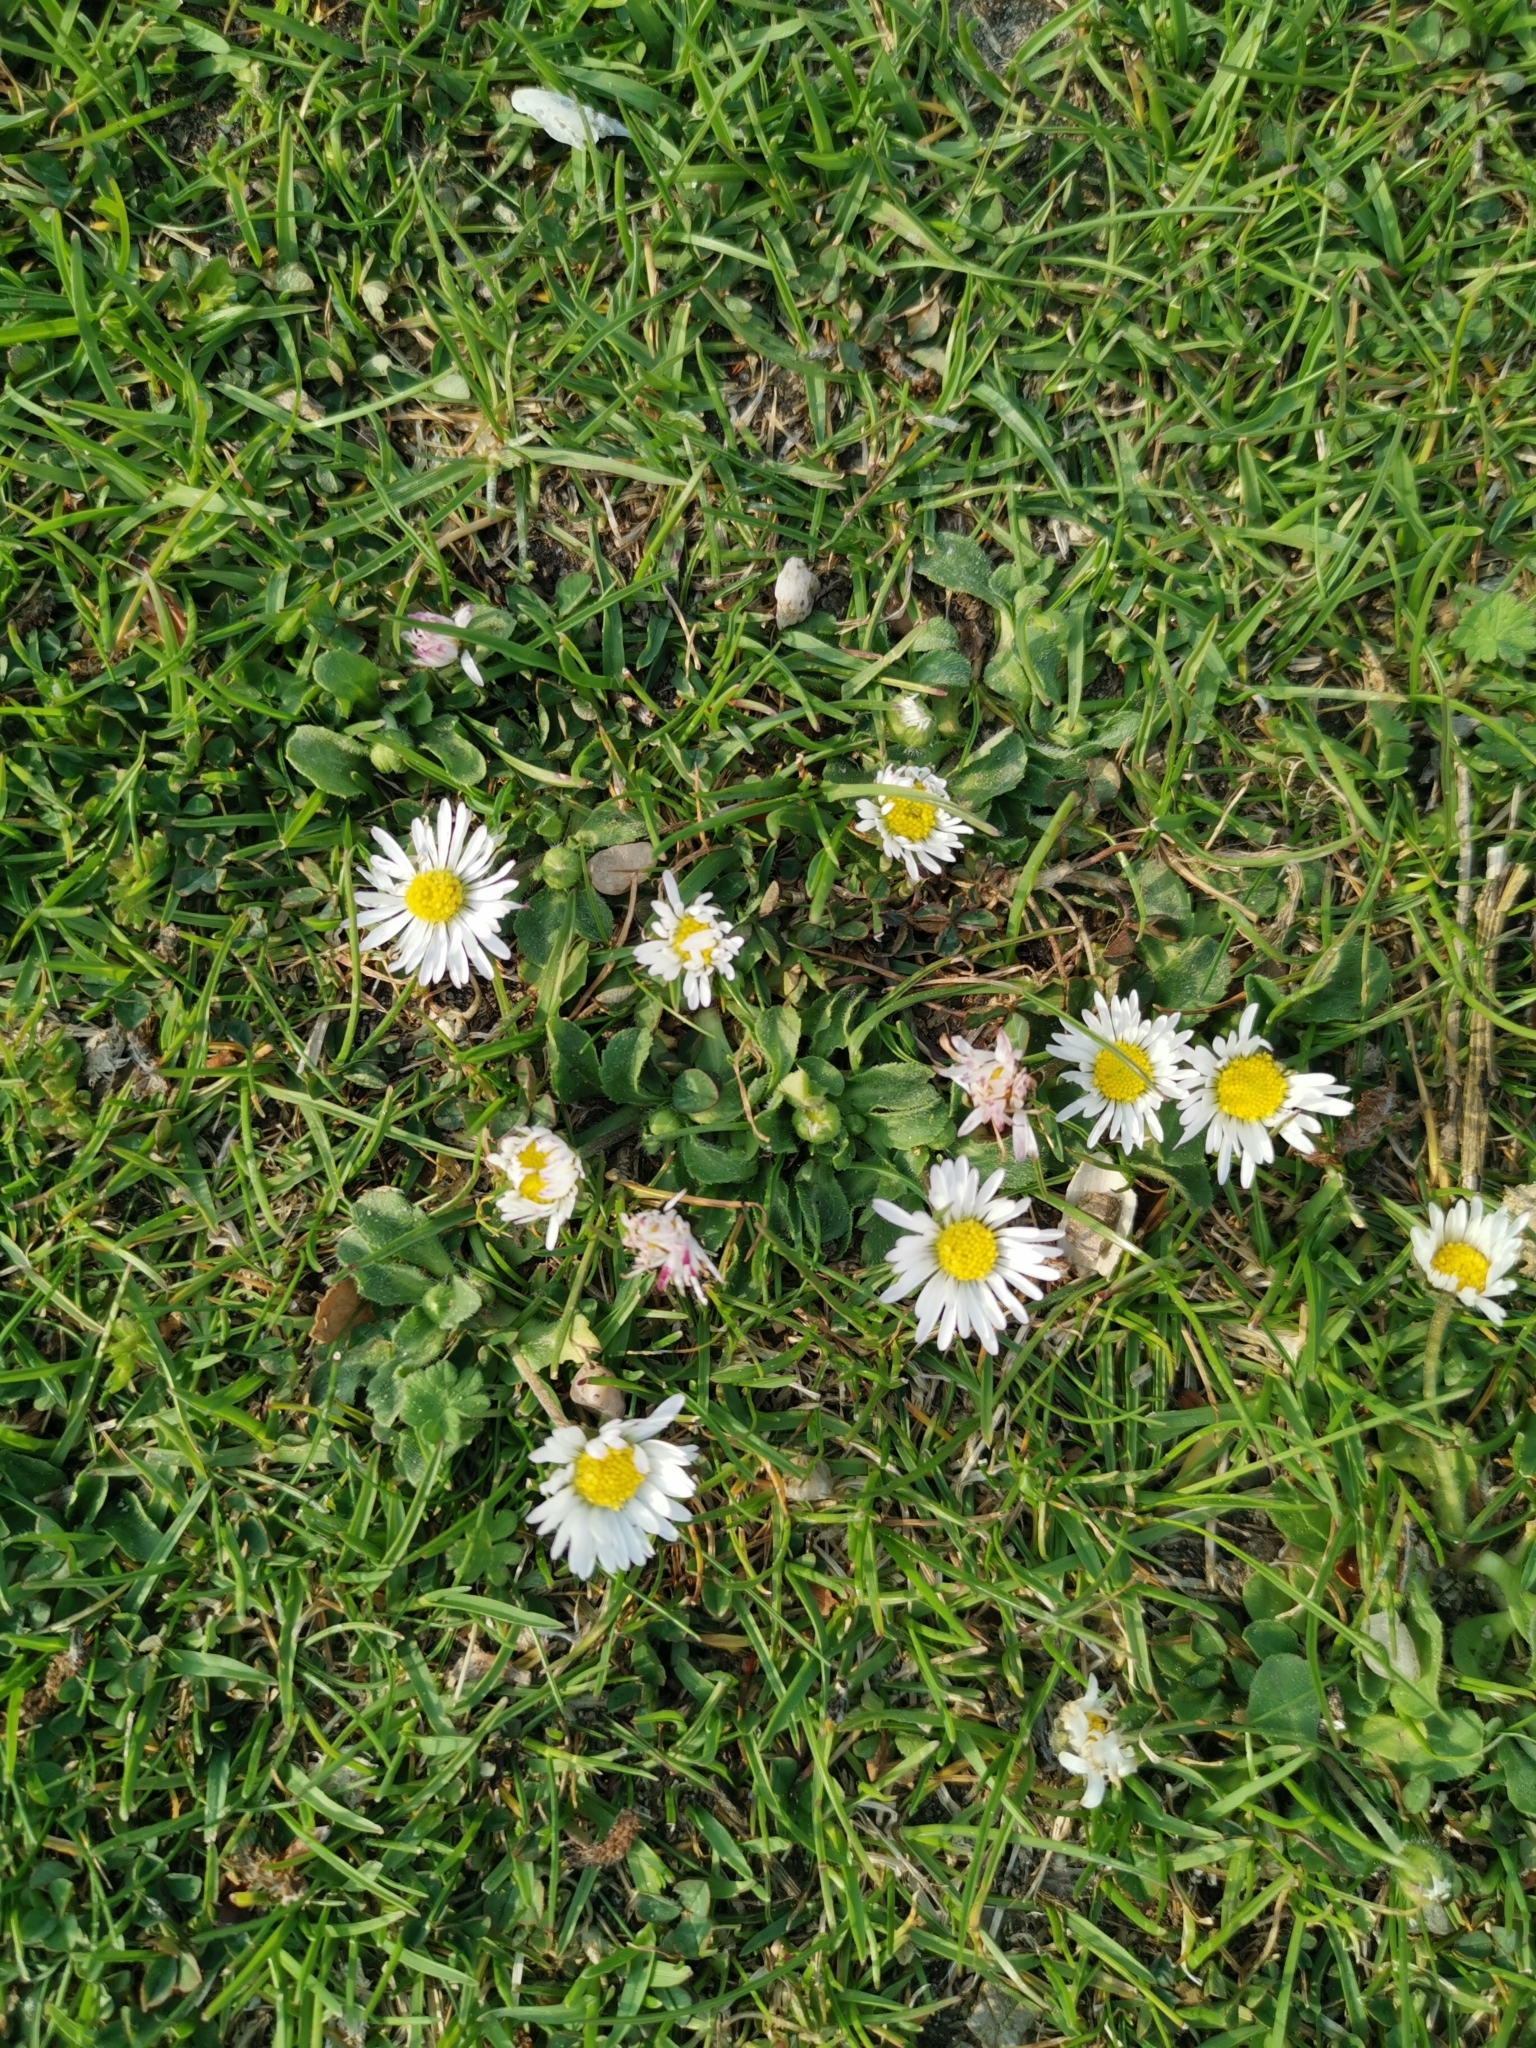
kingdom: Plantae
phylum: Tracheophyta
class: Magnoliopsida
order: Asterales
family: Asteraceae
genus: Bellis
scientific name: Bellis perennis
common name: Lawndaisy
